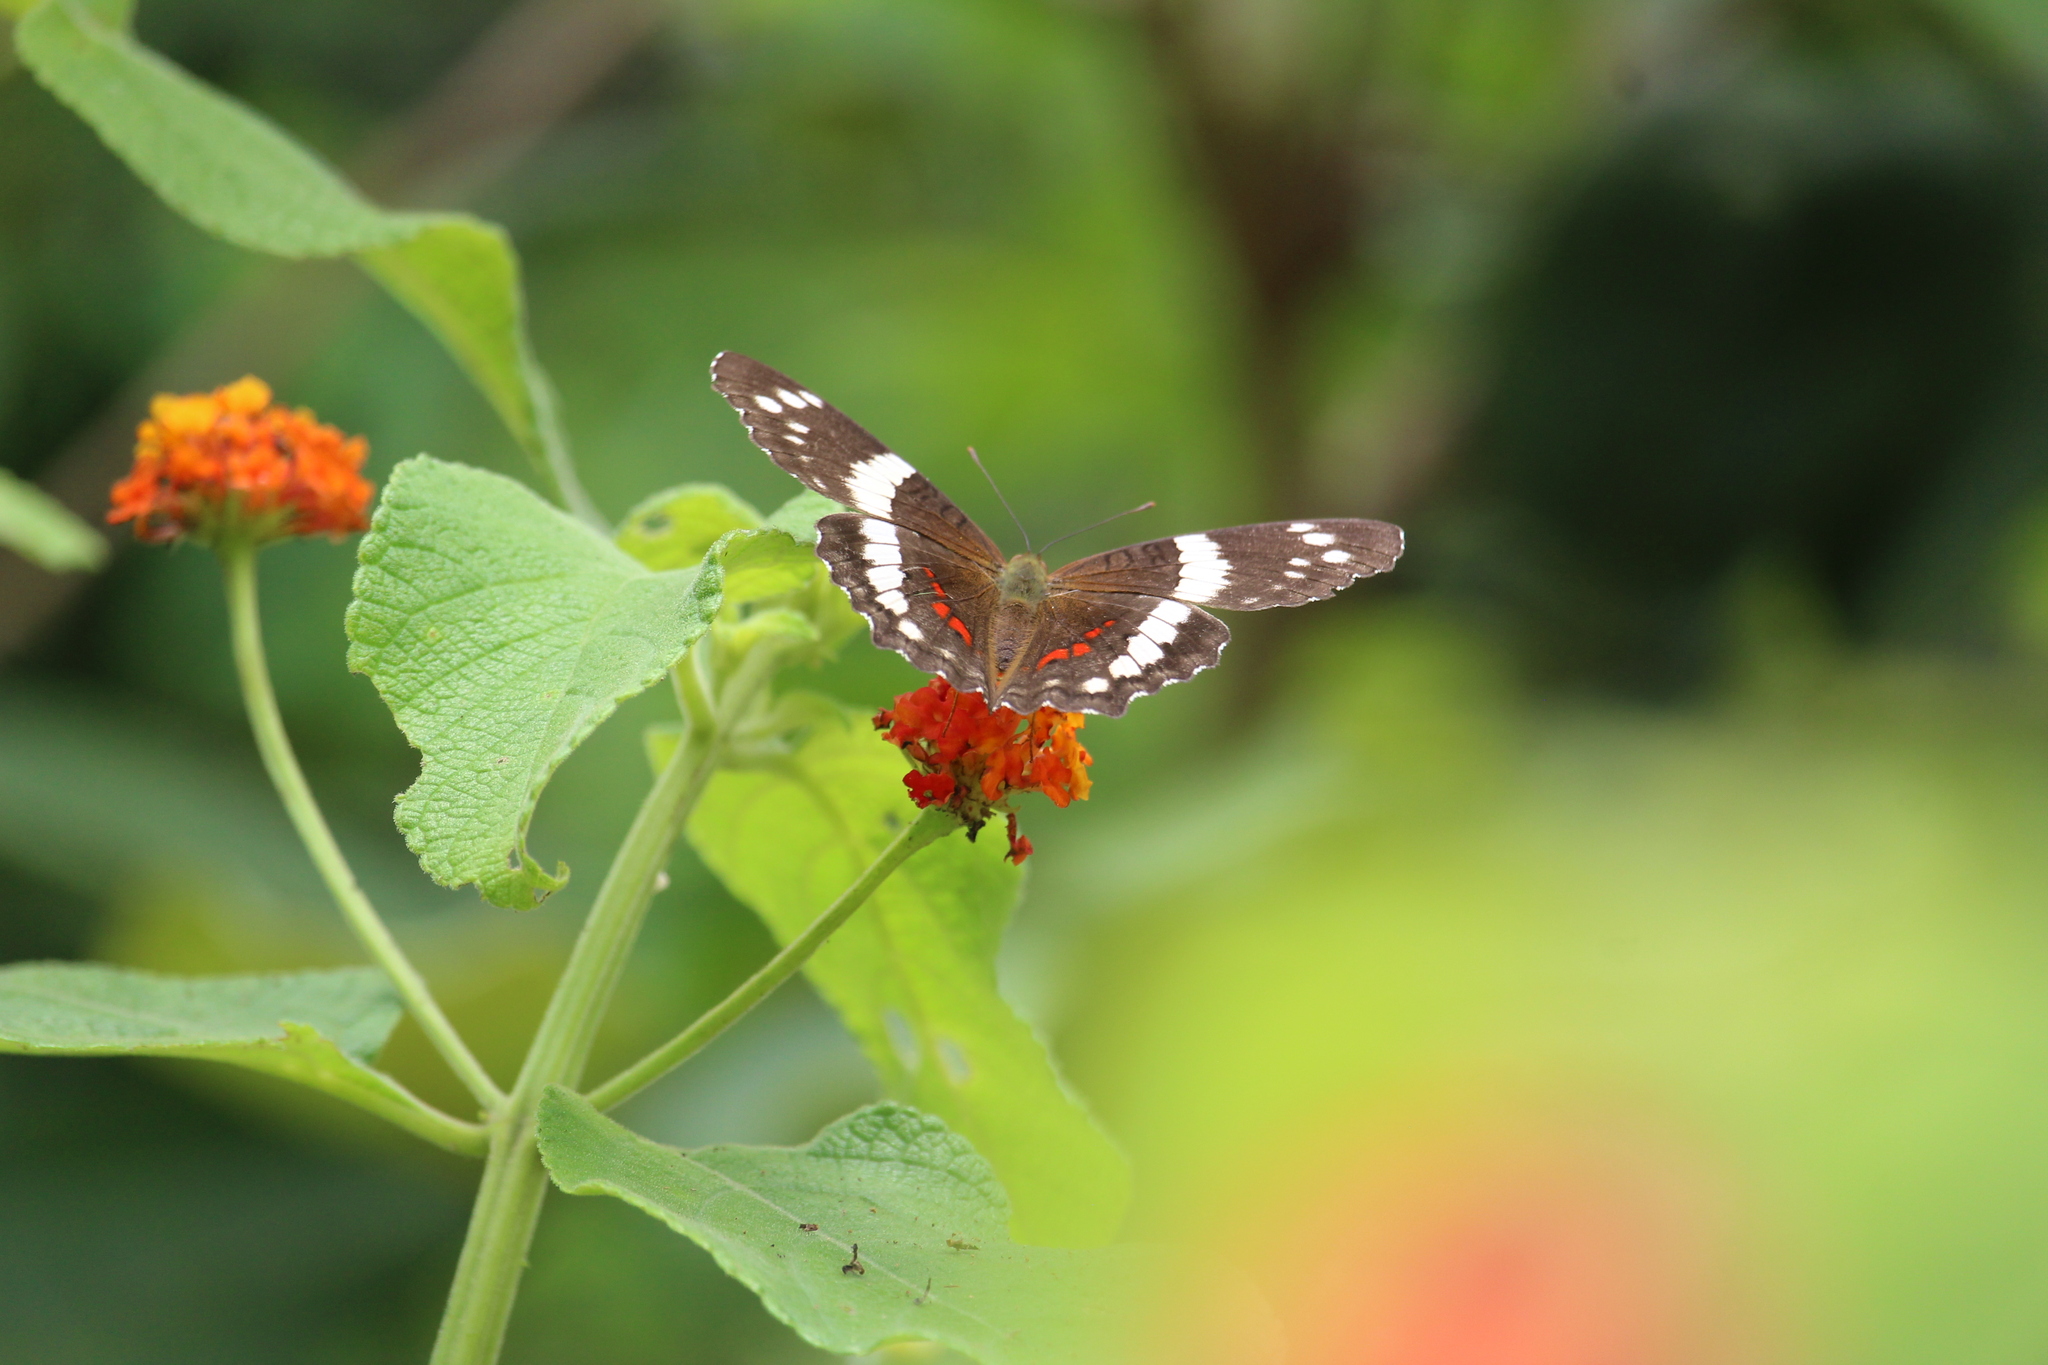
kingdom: Animalia
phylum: Arthropoda
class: Insecta
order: Lepidoptera
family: Nymphalidae
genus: Anartia
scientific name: Anartia fatima
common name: Banded peacock
